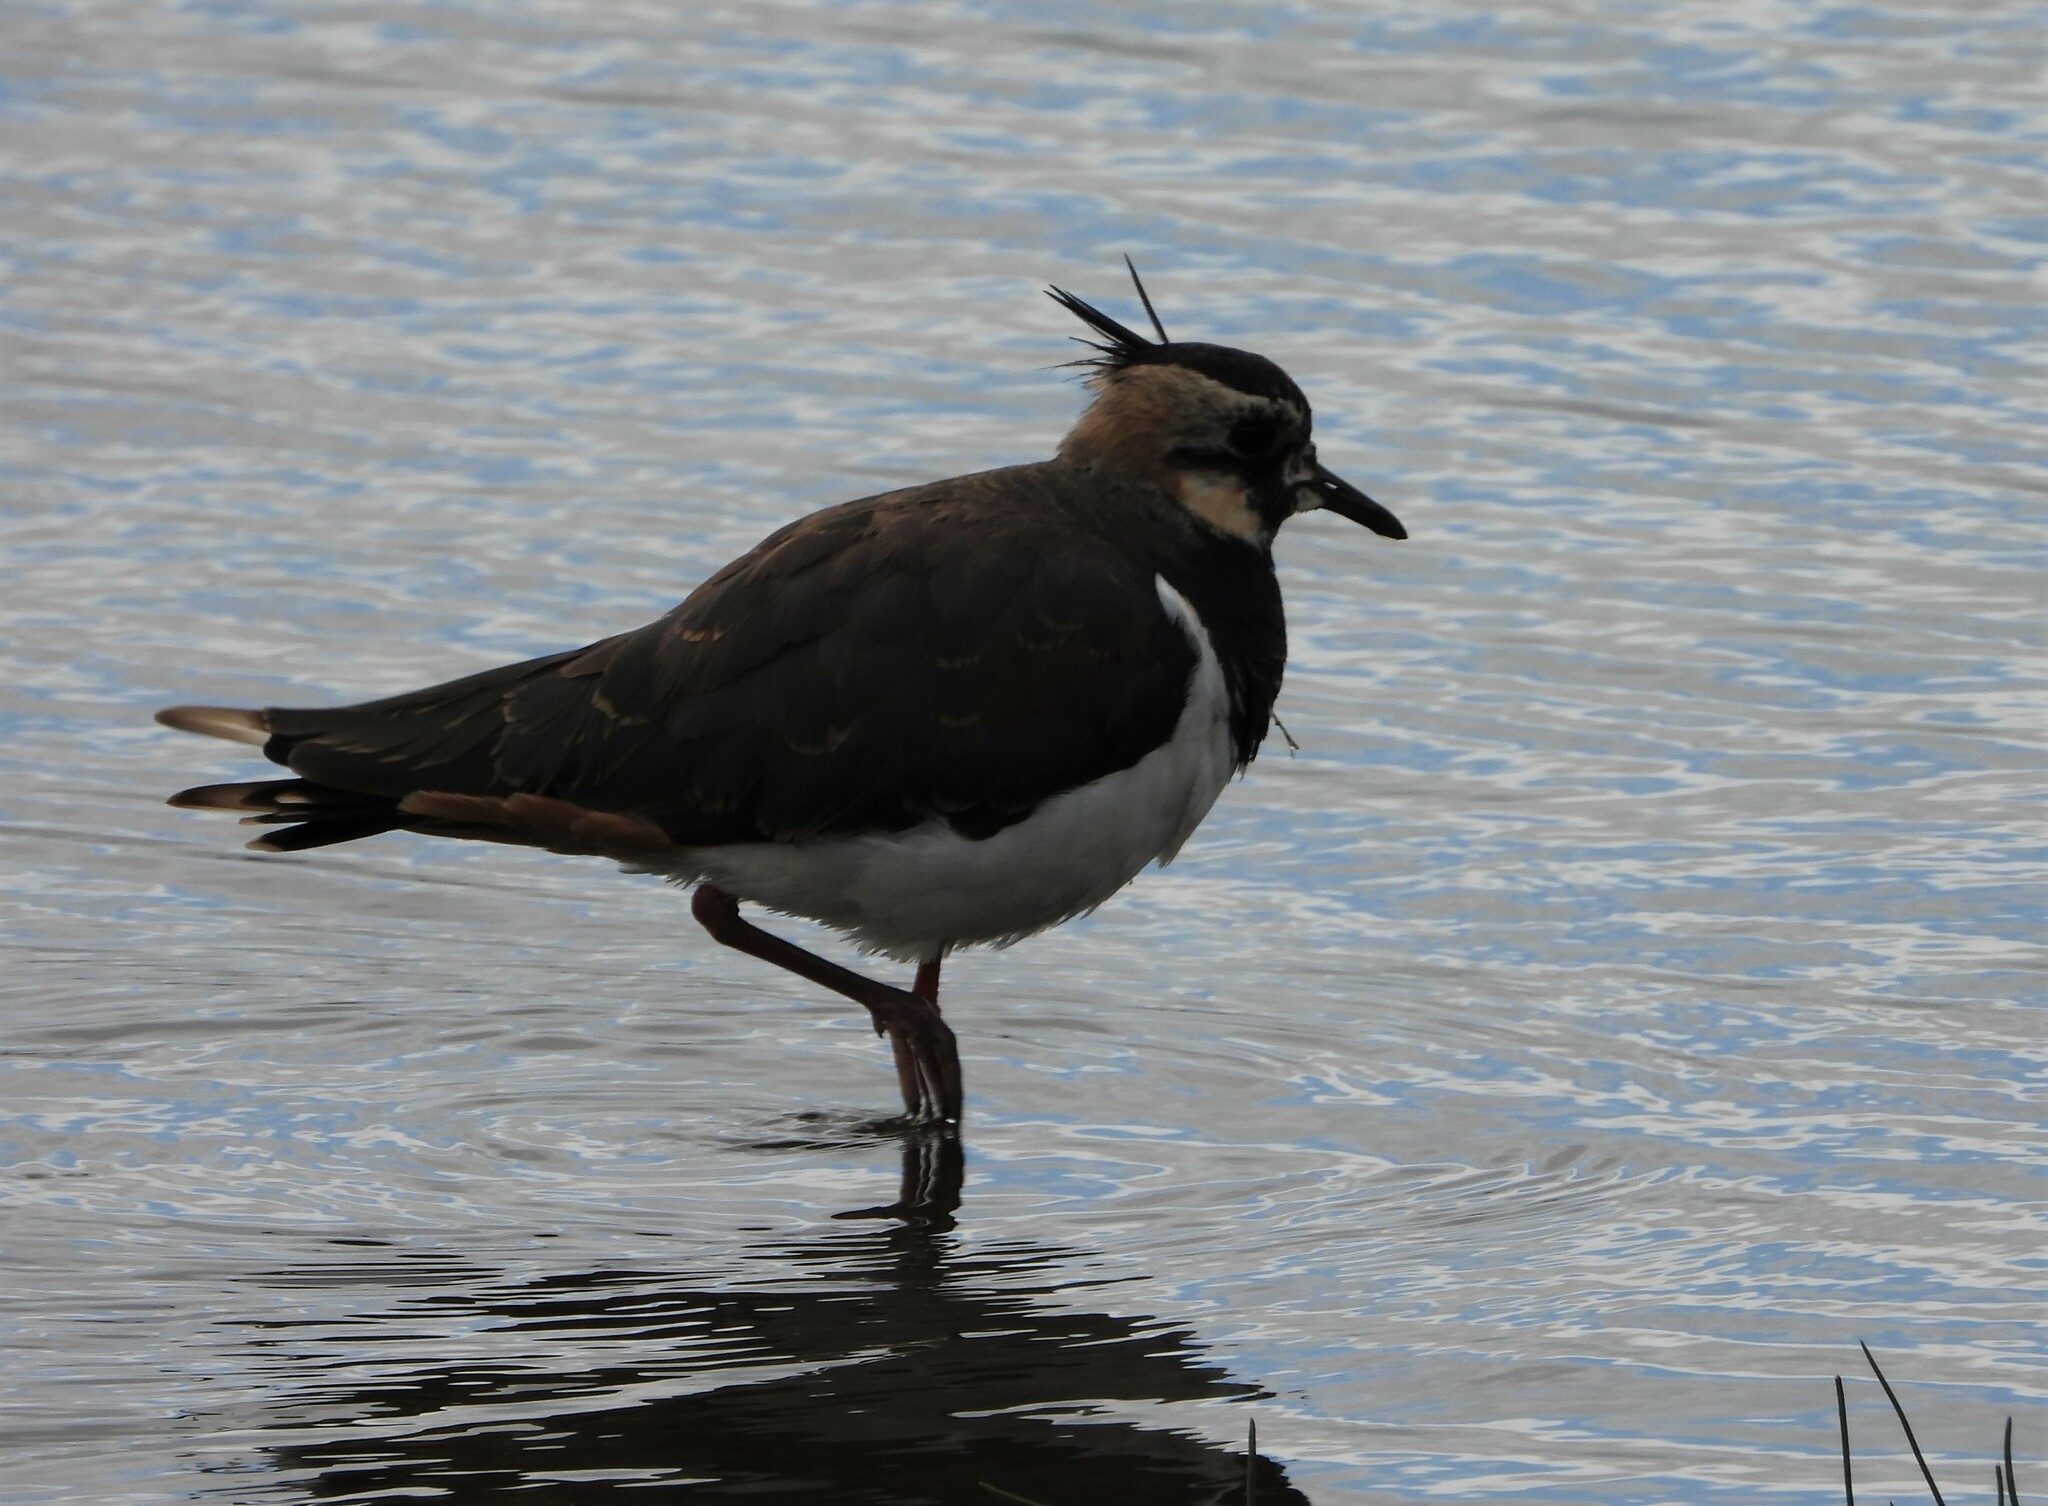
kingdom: Animalia
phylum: Chordata
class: Aves
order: Charadriiformes
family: Charadriidae
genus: Vanellus
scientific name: Vanellus vanellus
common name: Northern lapwing
